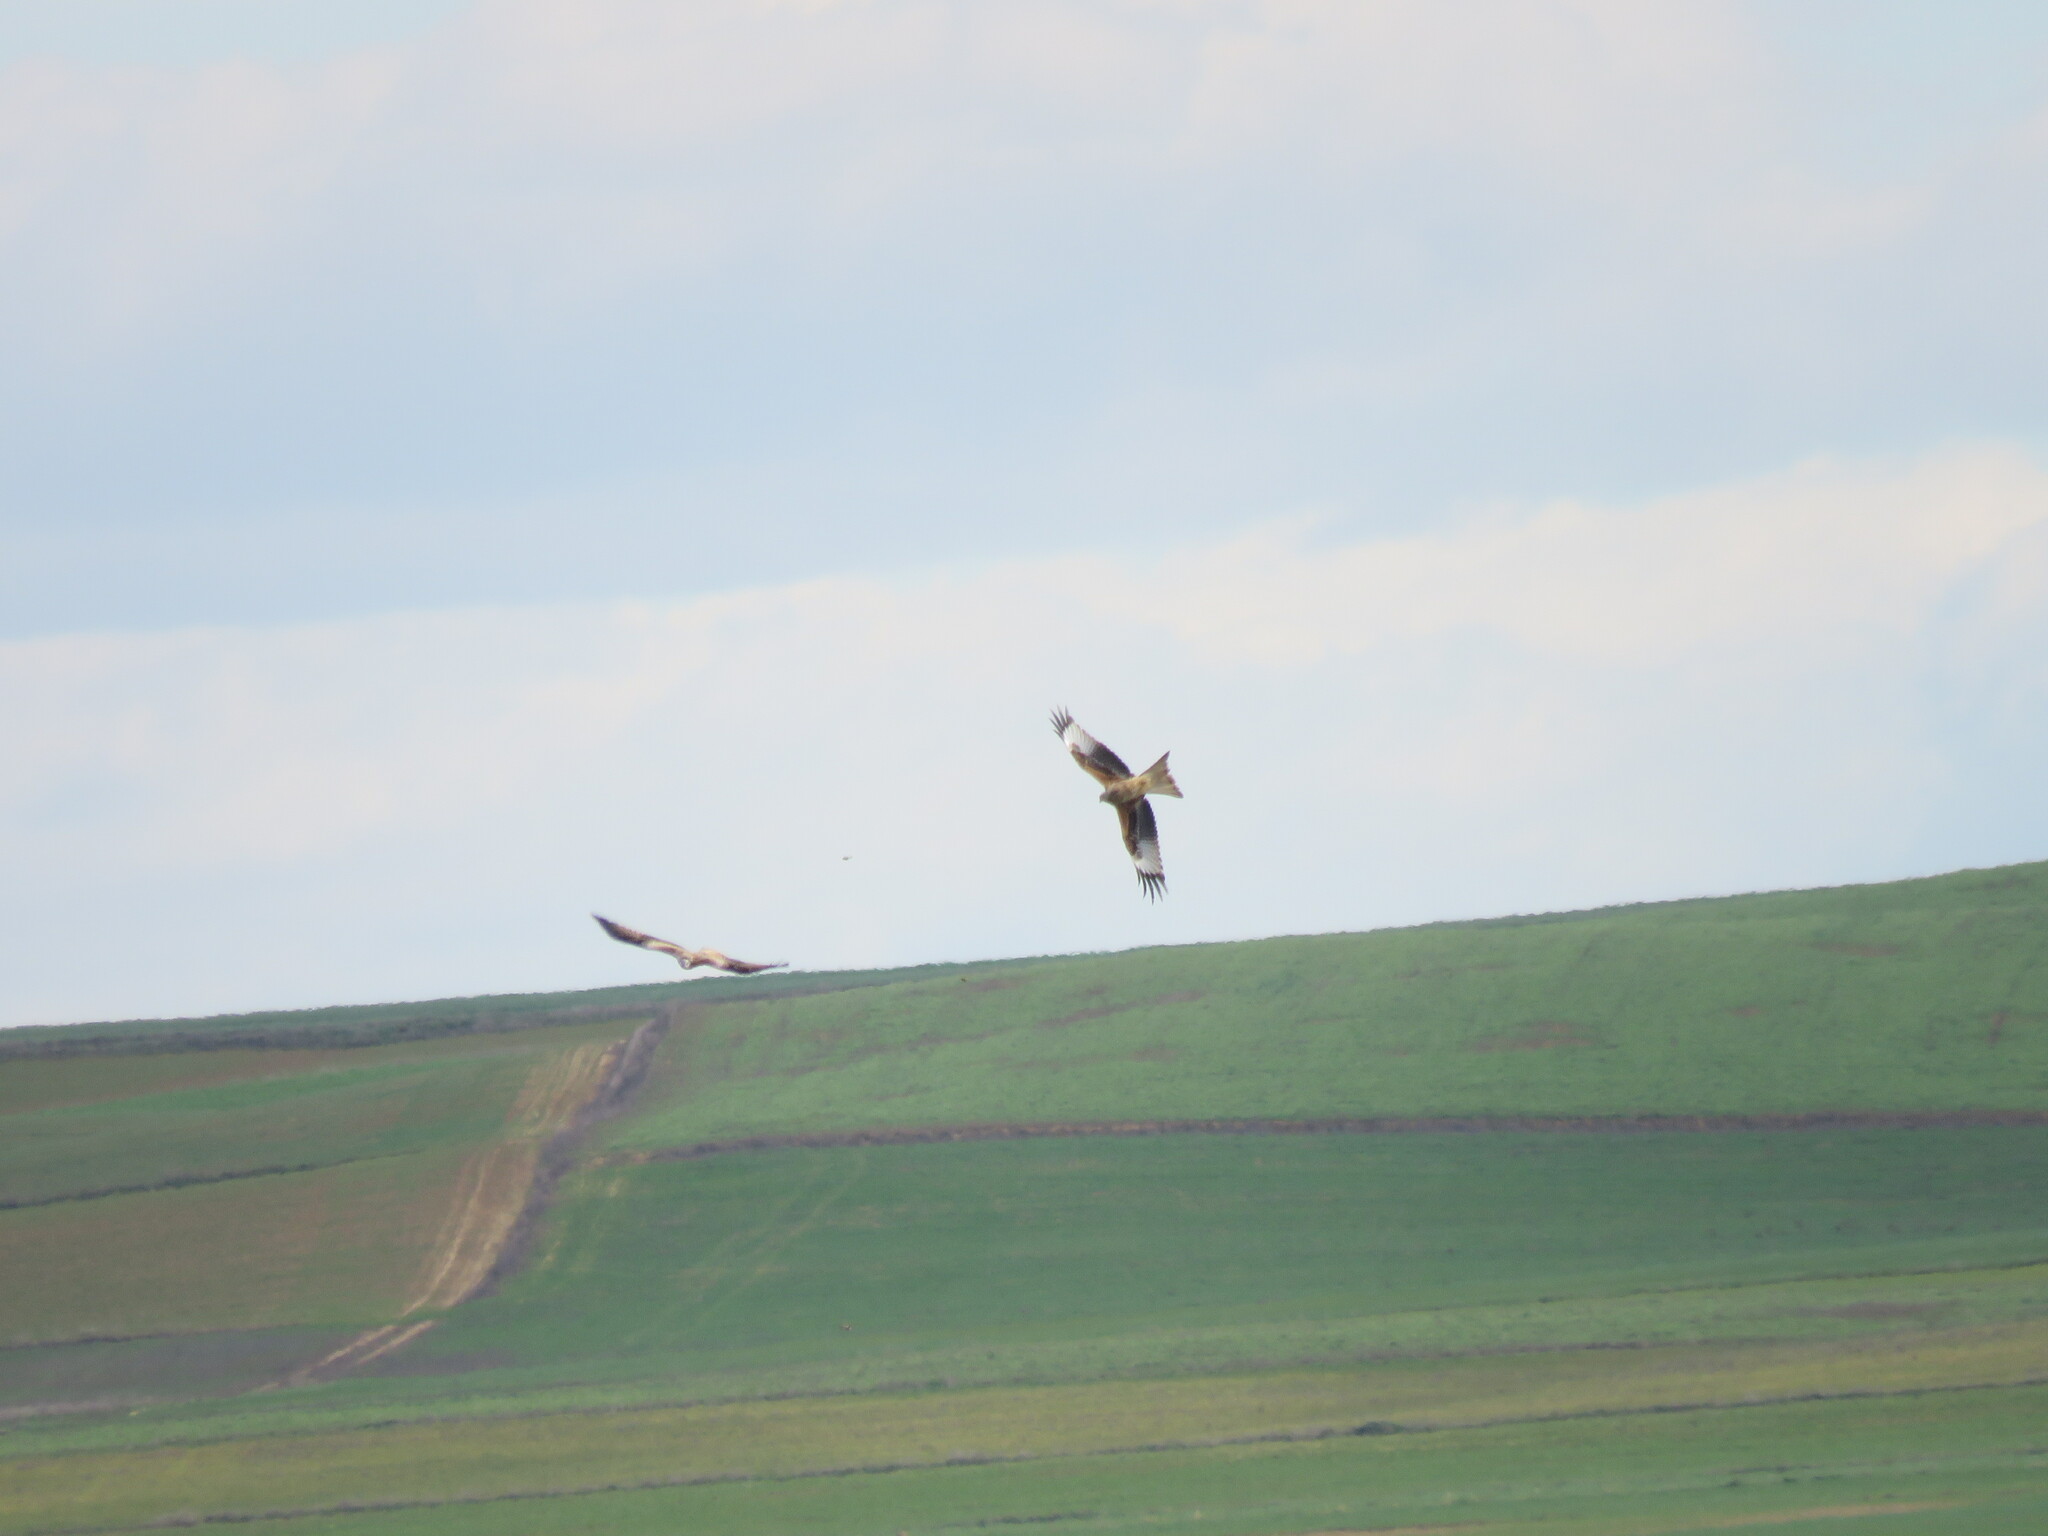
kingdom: Animalia
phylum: Chordata
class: Aves
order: Accipitriformes
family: Accipitridae
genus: Milvus
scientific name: Milvus milvus
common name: Red kite
